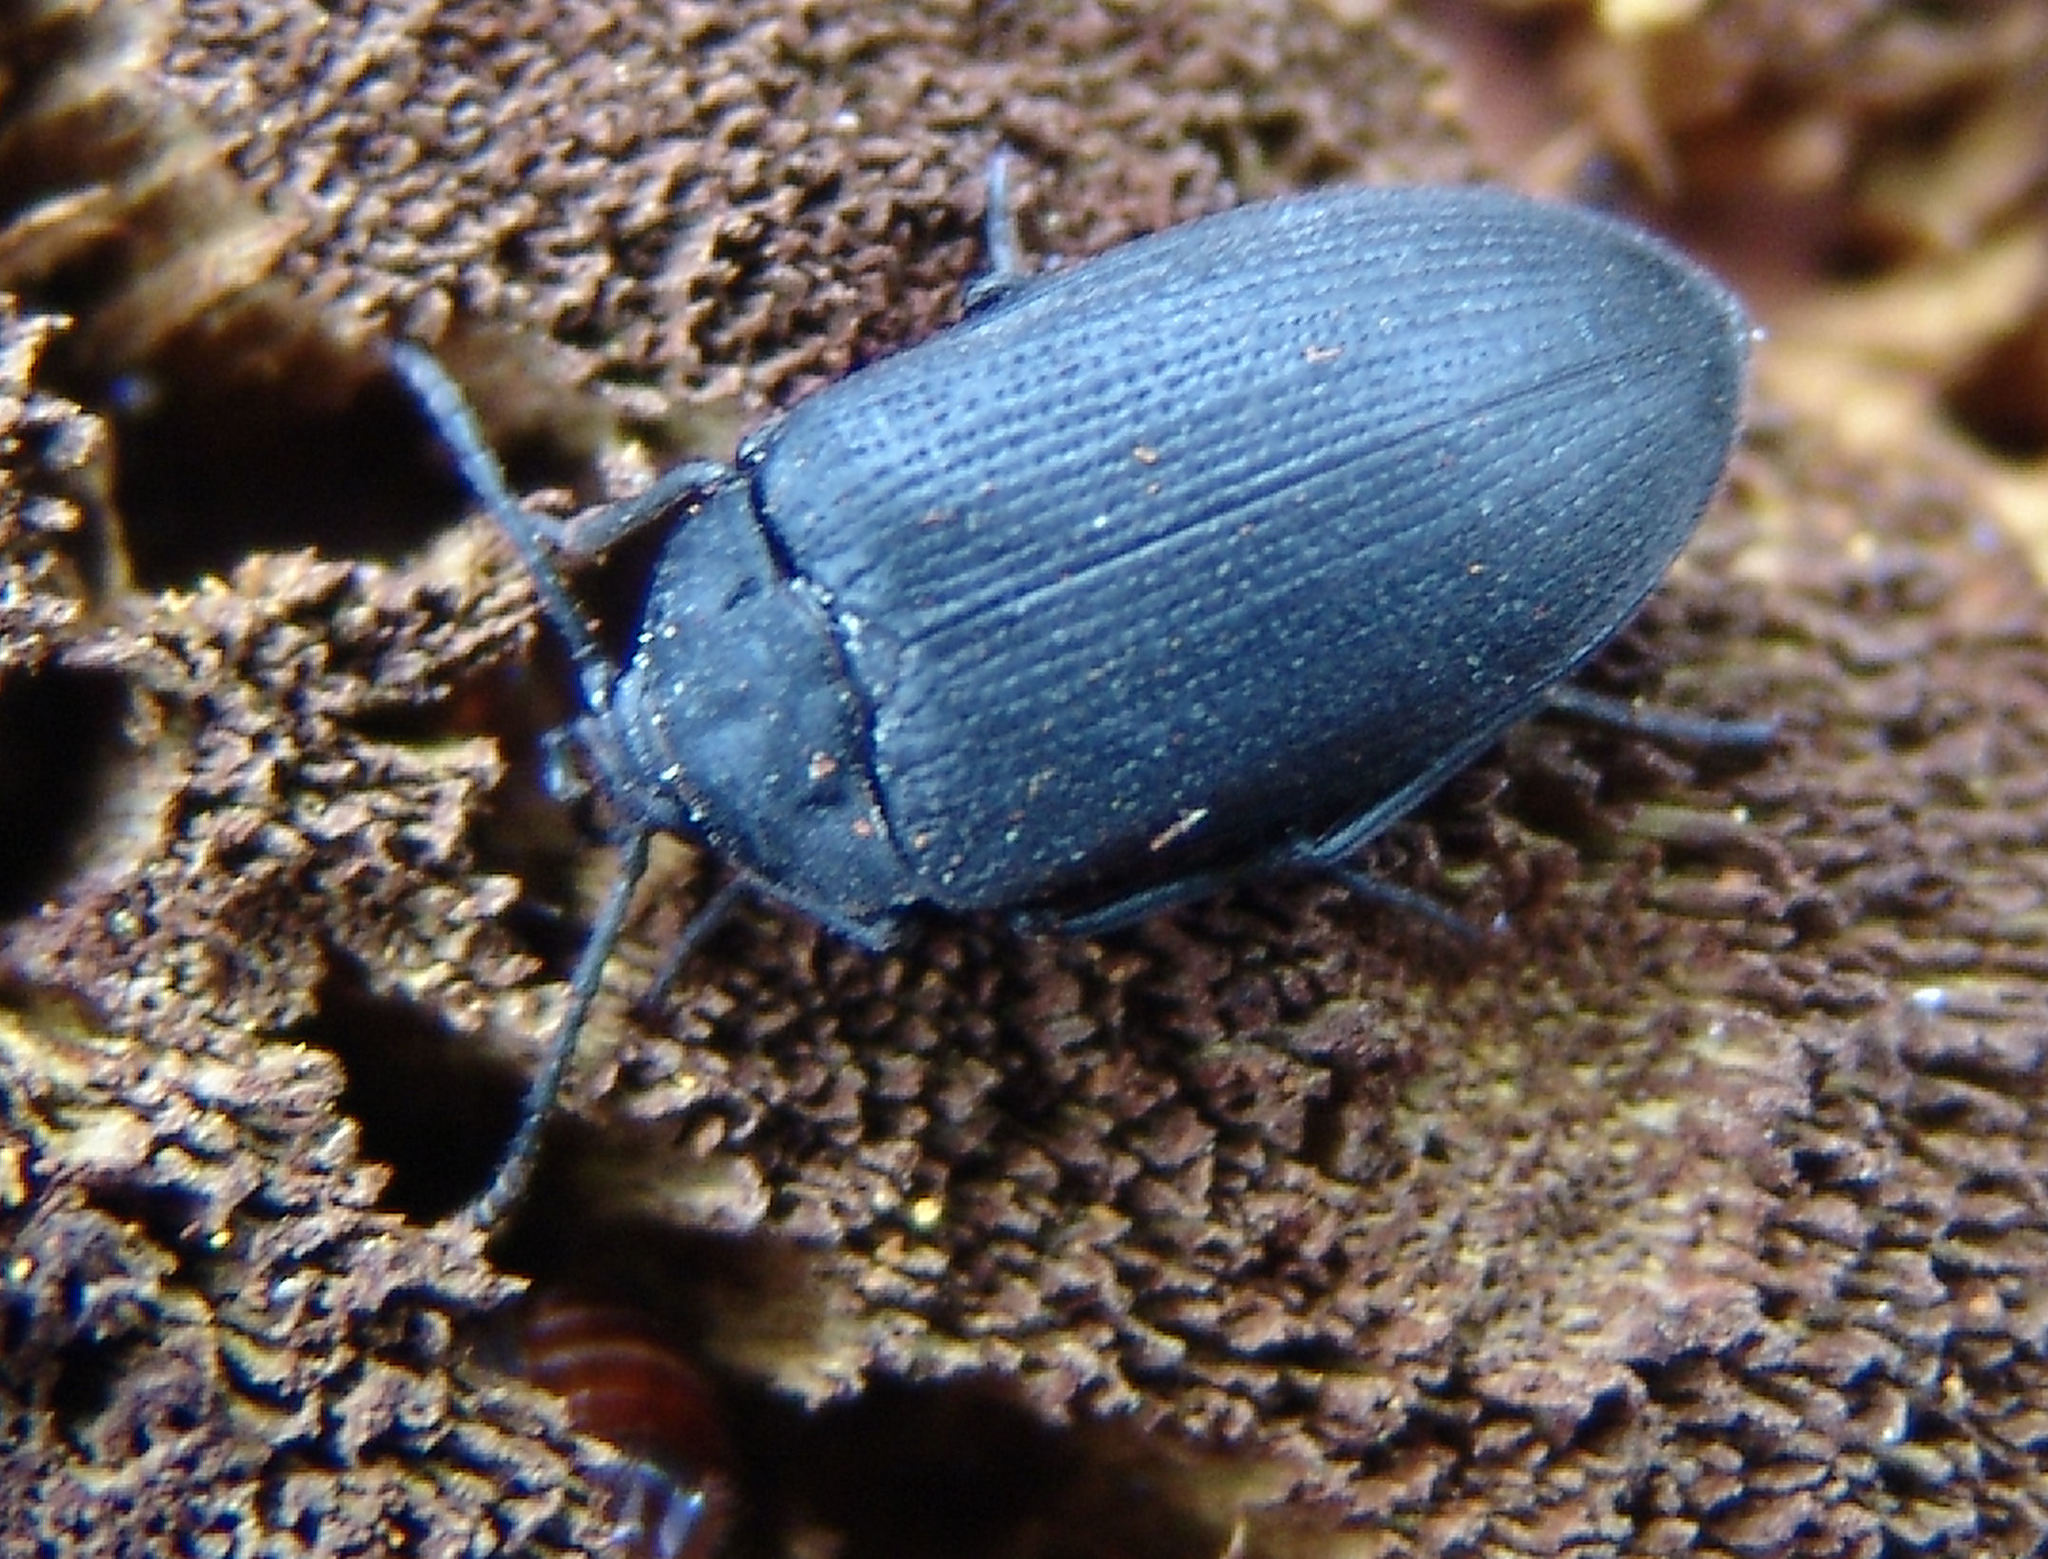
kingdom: Animalia
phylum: Arthropoda
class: Insecta
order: Coleoptera
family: Tetratomidae
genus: Penthe
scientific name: Penthe pimelia
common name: Velvety bark beetle
